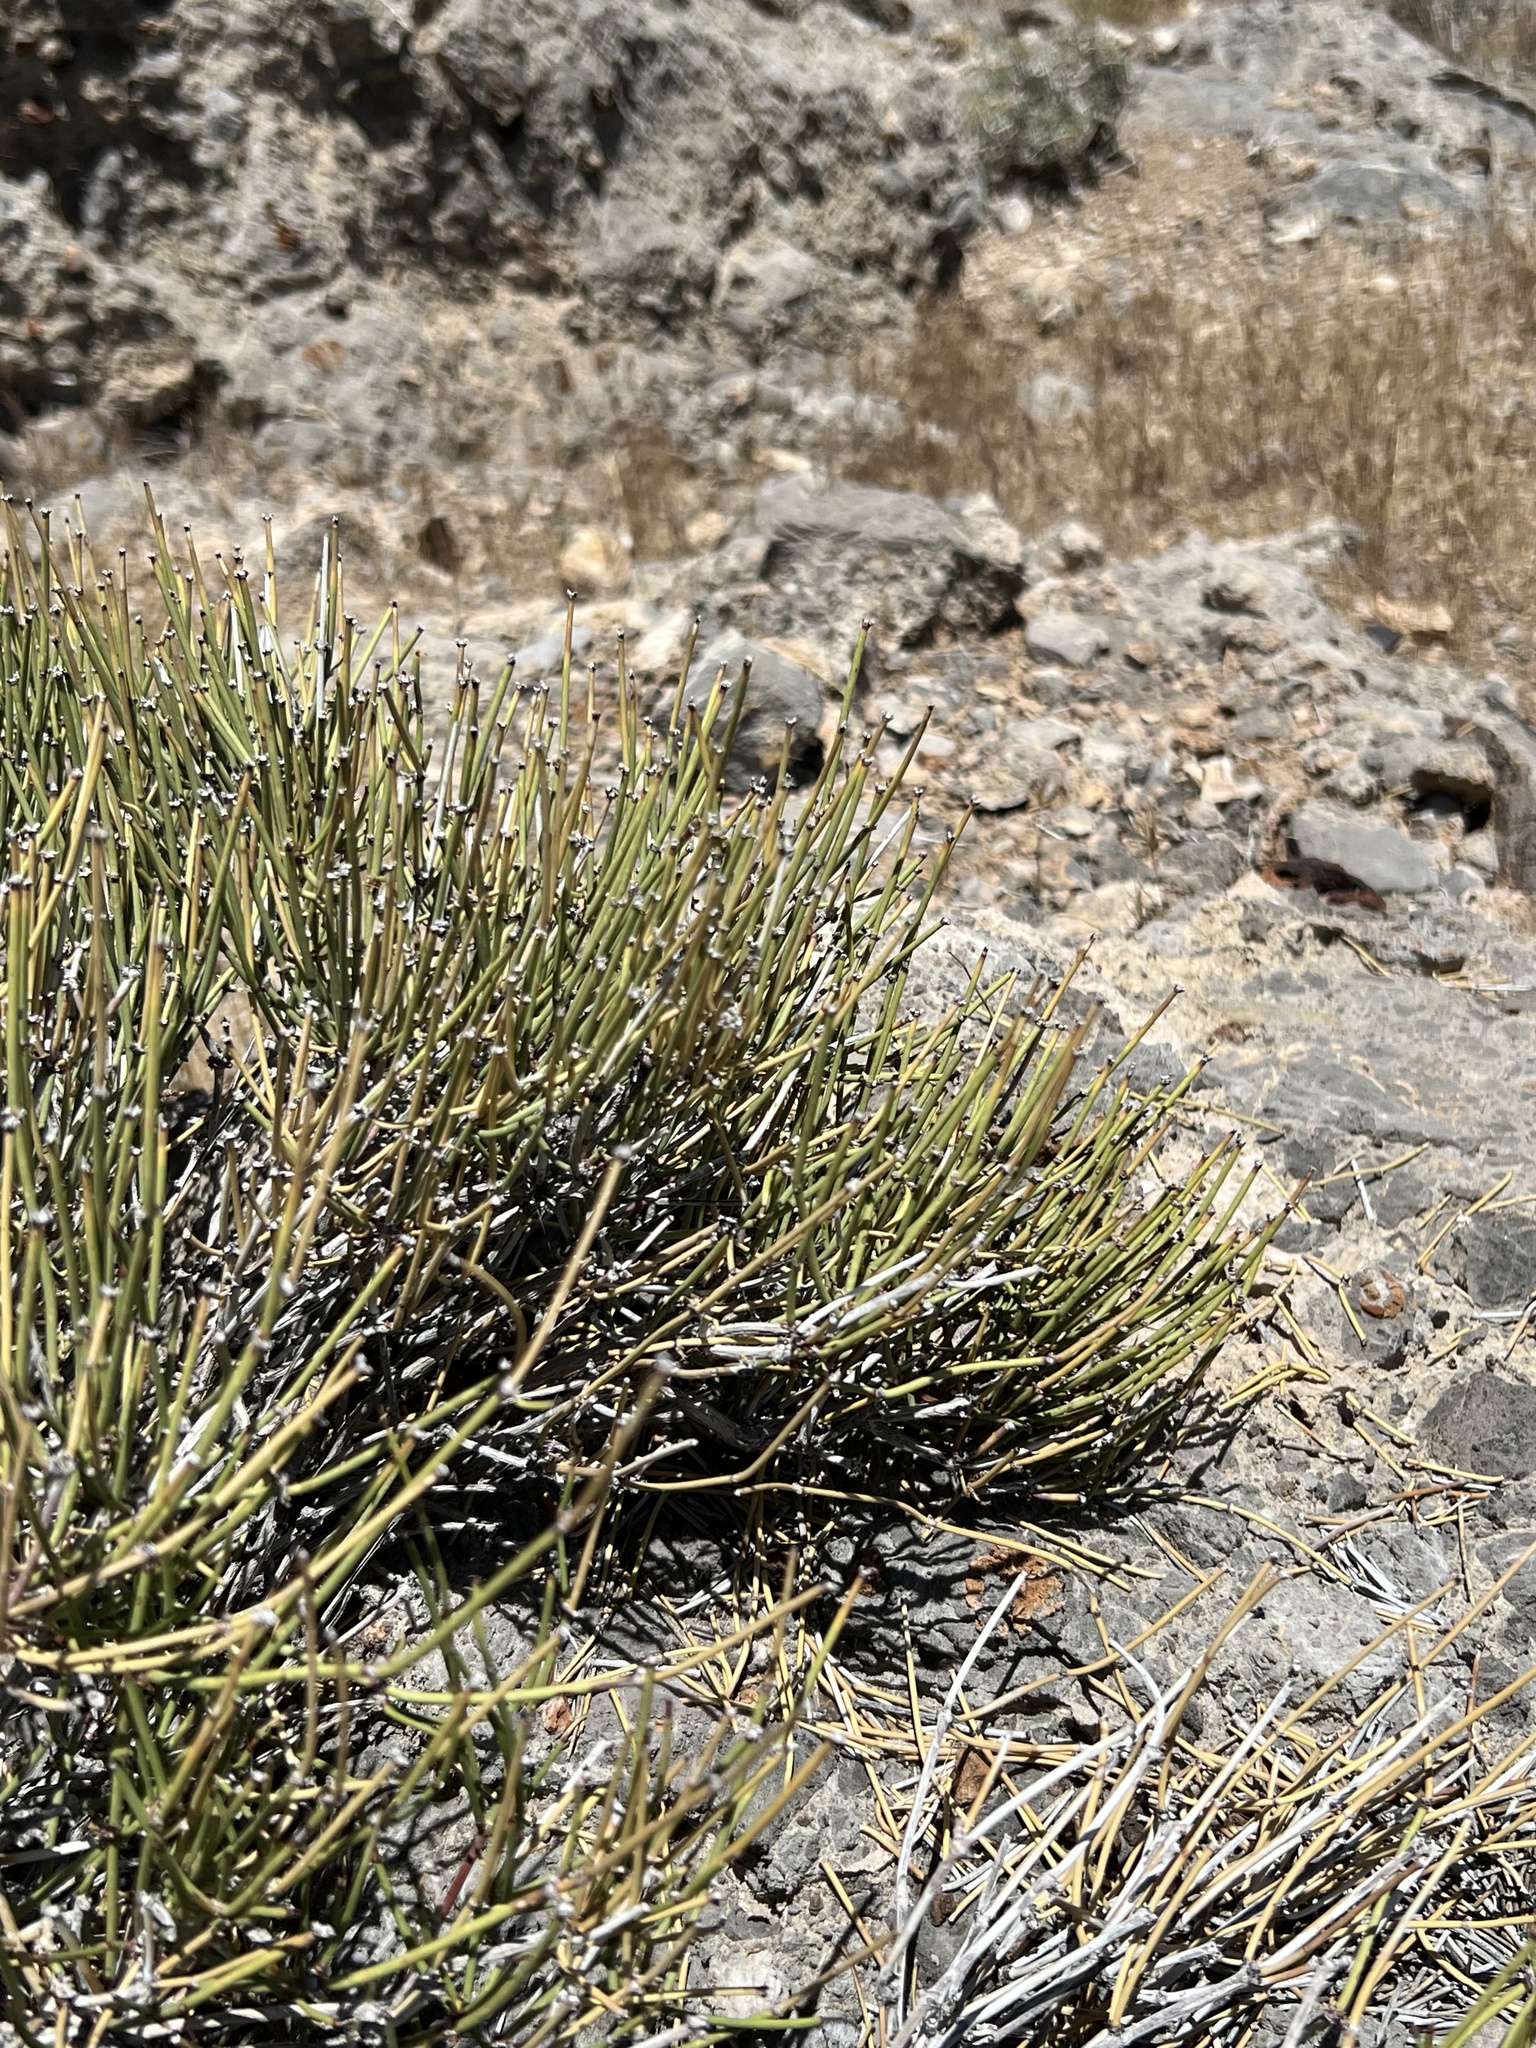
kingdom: Plantae
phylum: Tracheophyta
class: Gnetopsida
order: Ephedrales
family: Ephedraceae
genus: Ephedra
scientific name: Ephedra viridis
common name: Green ephedra
